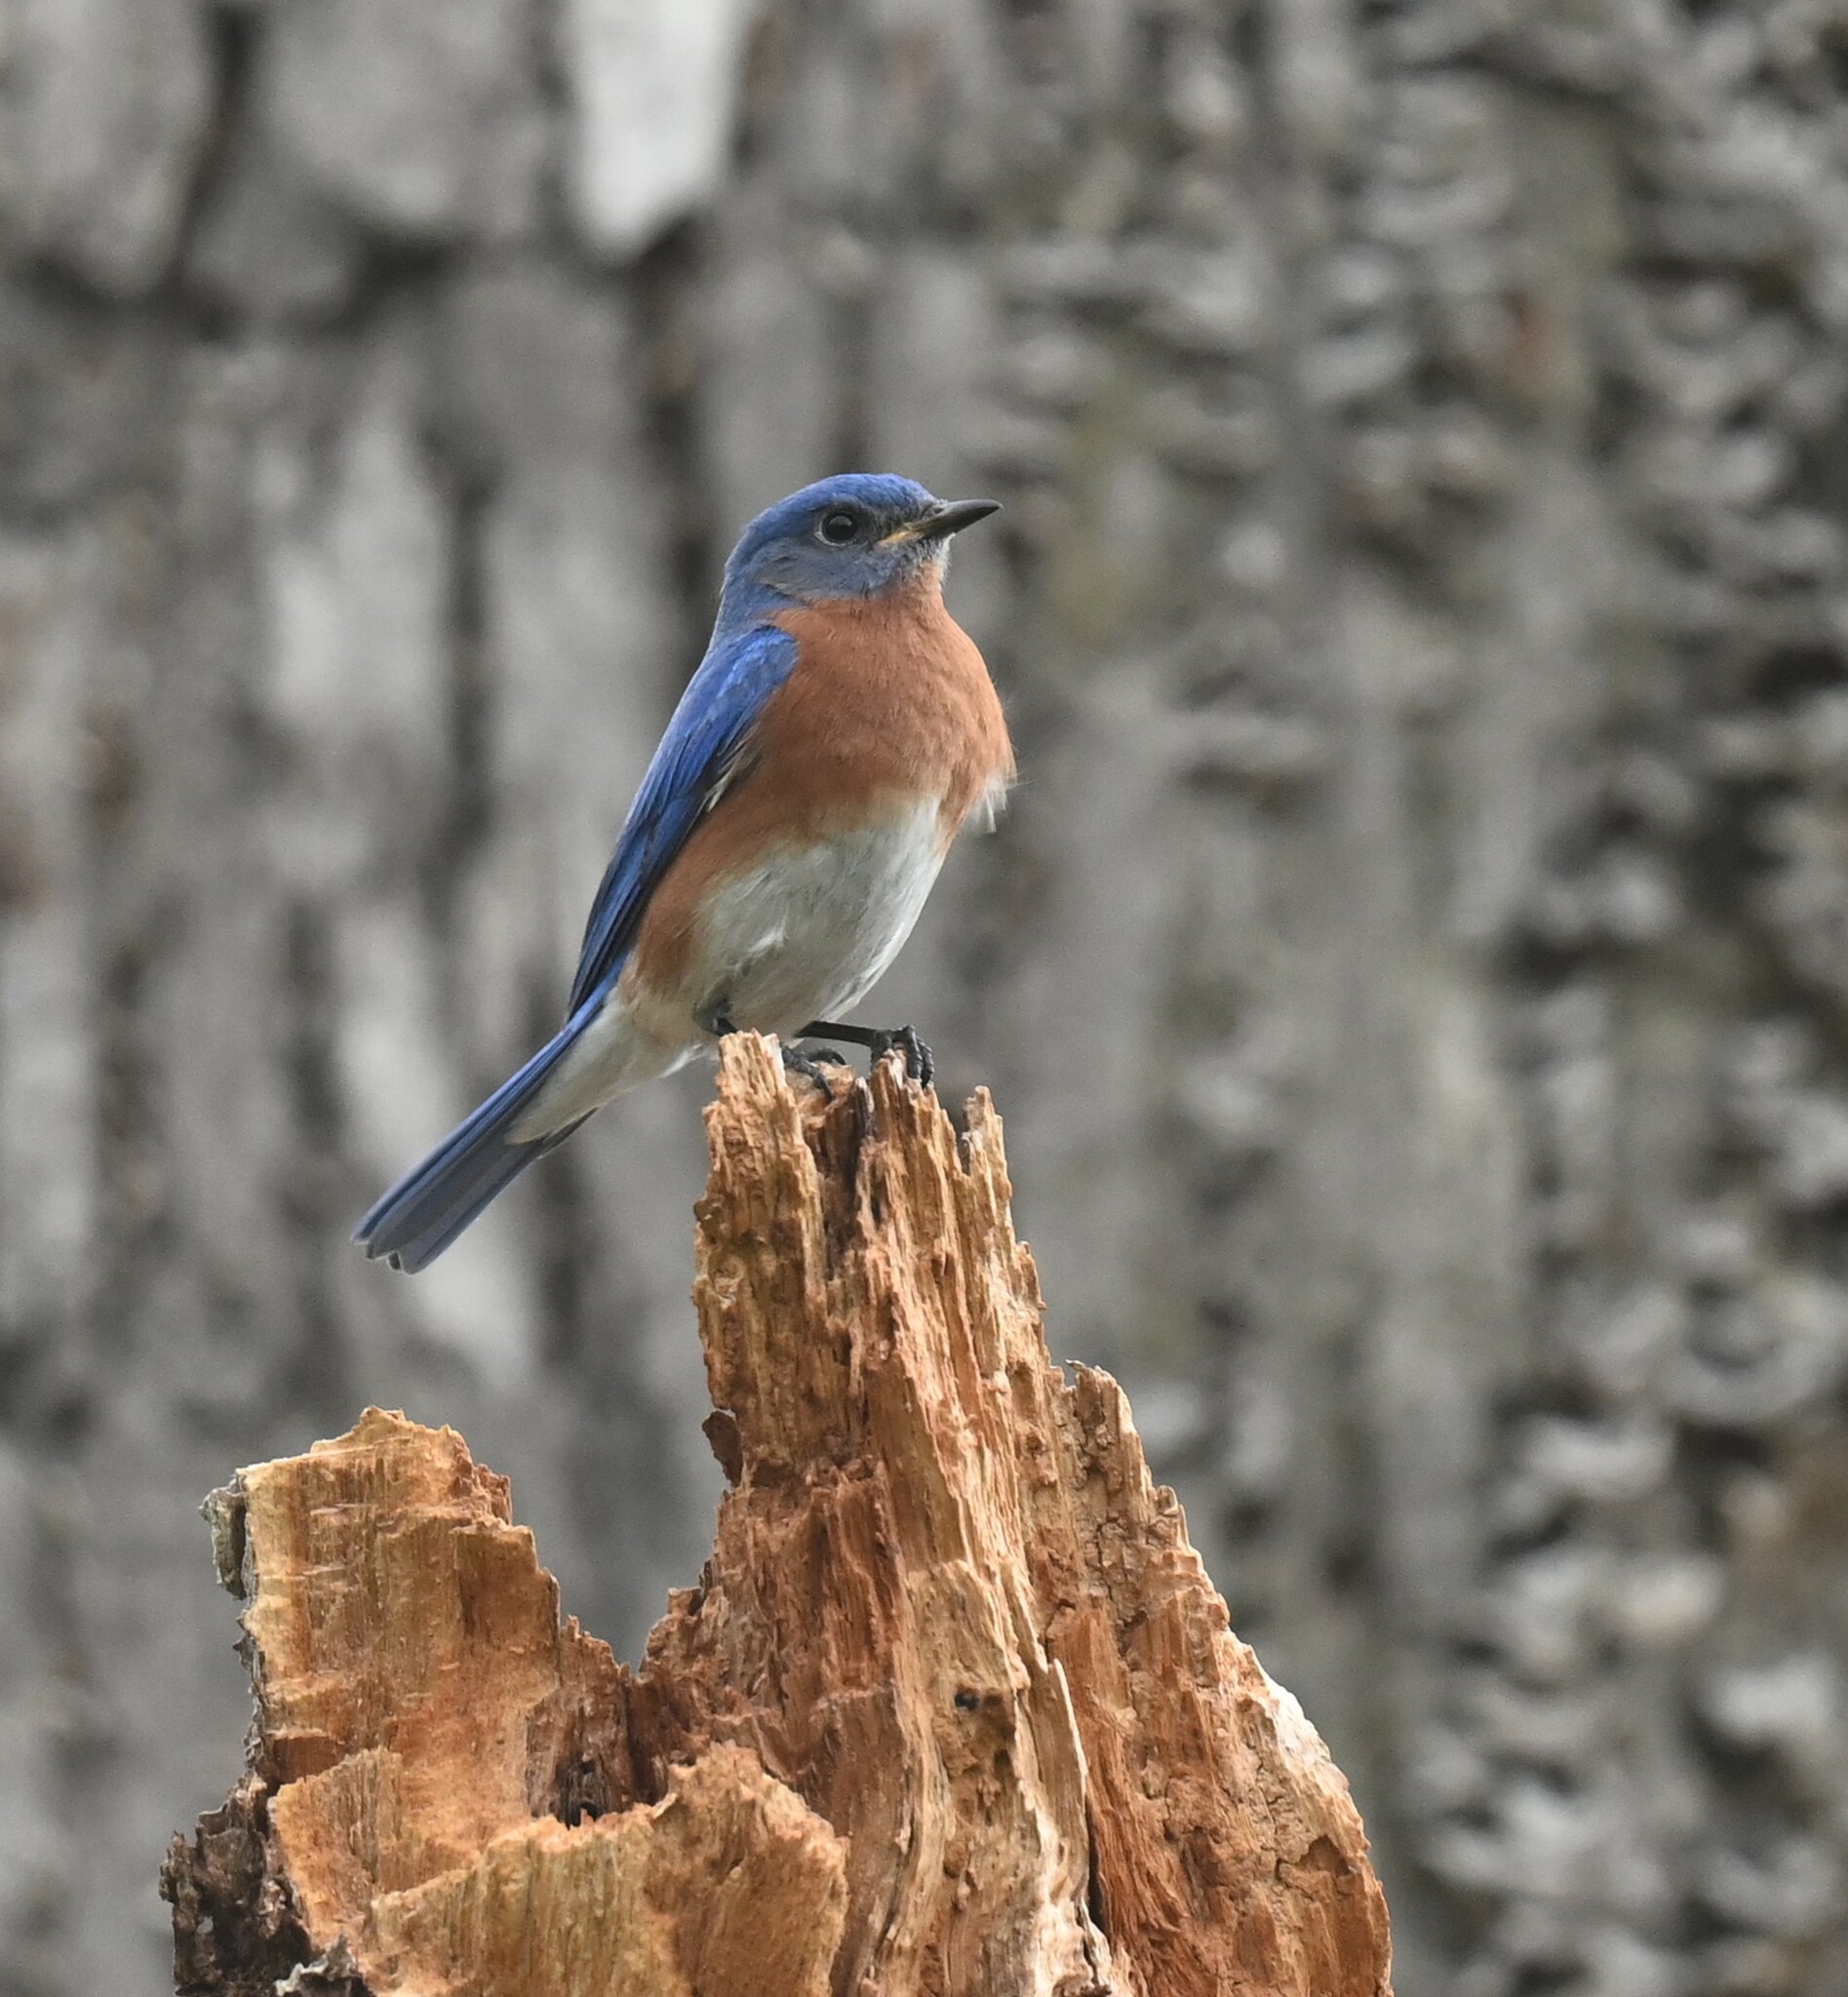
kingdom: Animalia
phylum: Chordata
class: Aves
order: Passeriformes
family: Turdidae
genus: Sialia
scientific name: Sialia sialis
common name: Eastern bluebird
